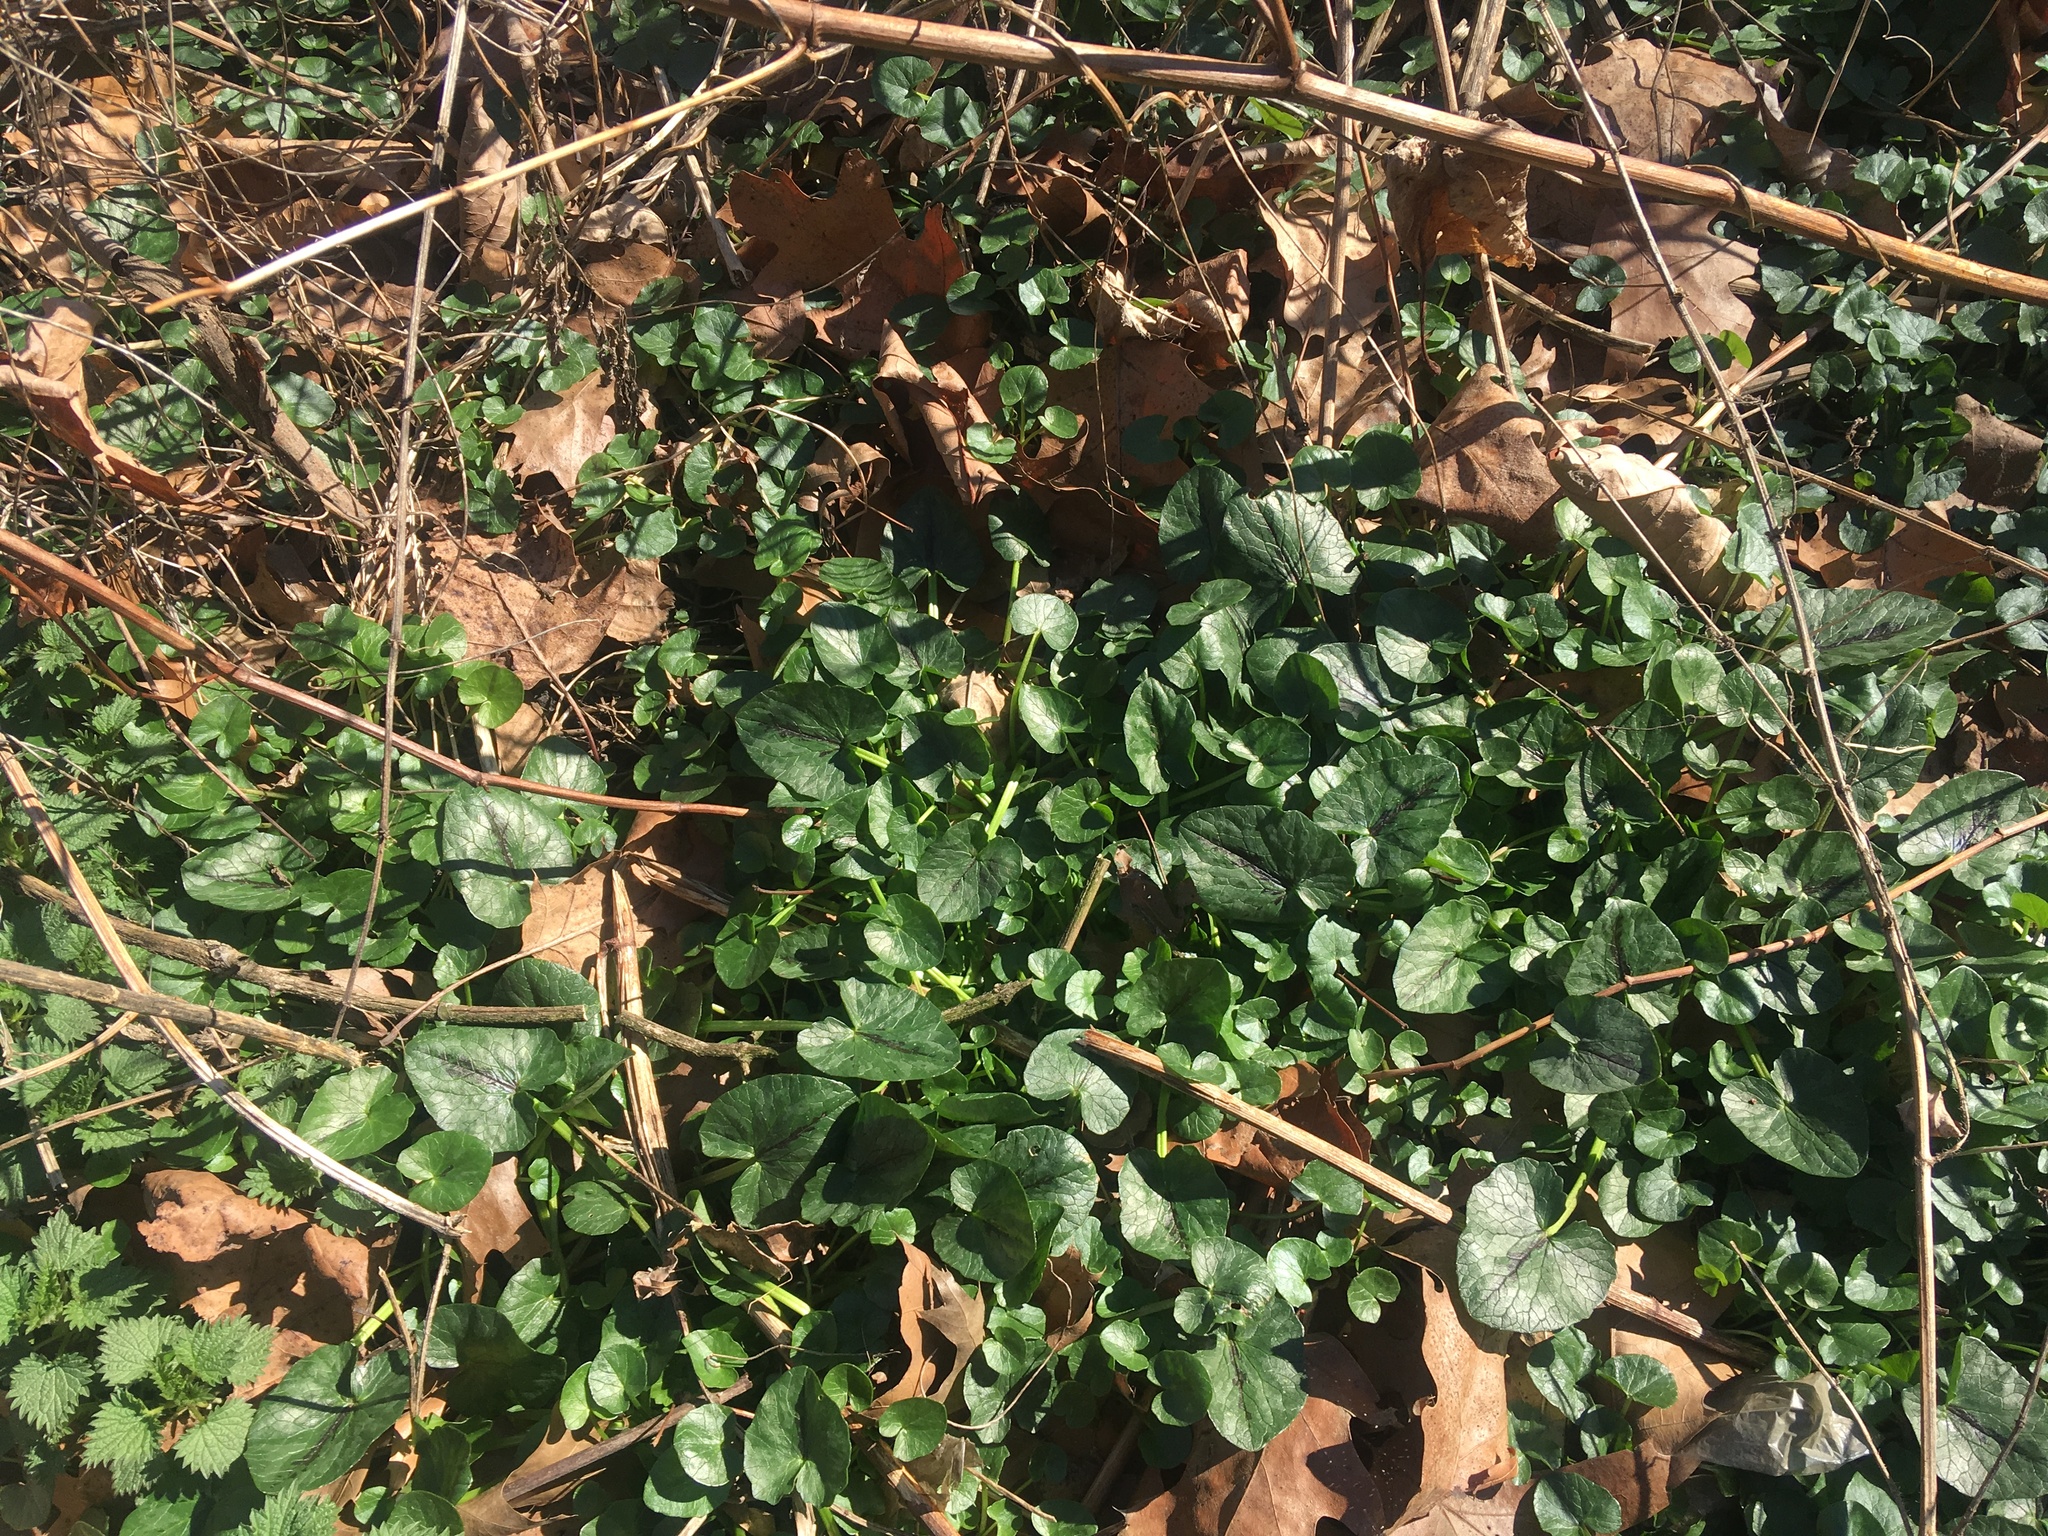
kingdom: Plantae
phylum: Tracheophyta
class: Magnoliopsida
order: Ranunculales
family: Ranunculaceae
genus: Ficaria
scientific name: Ficaria verna
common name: Lesser celandine
